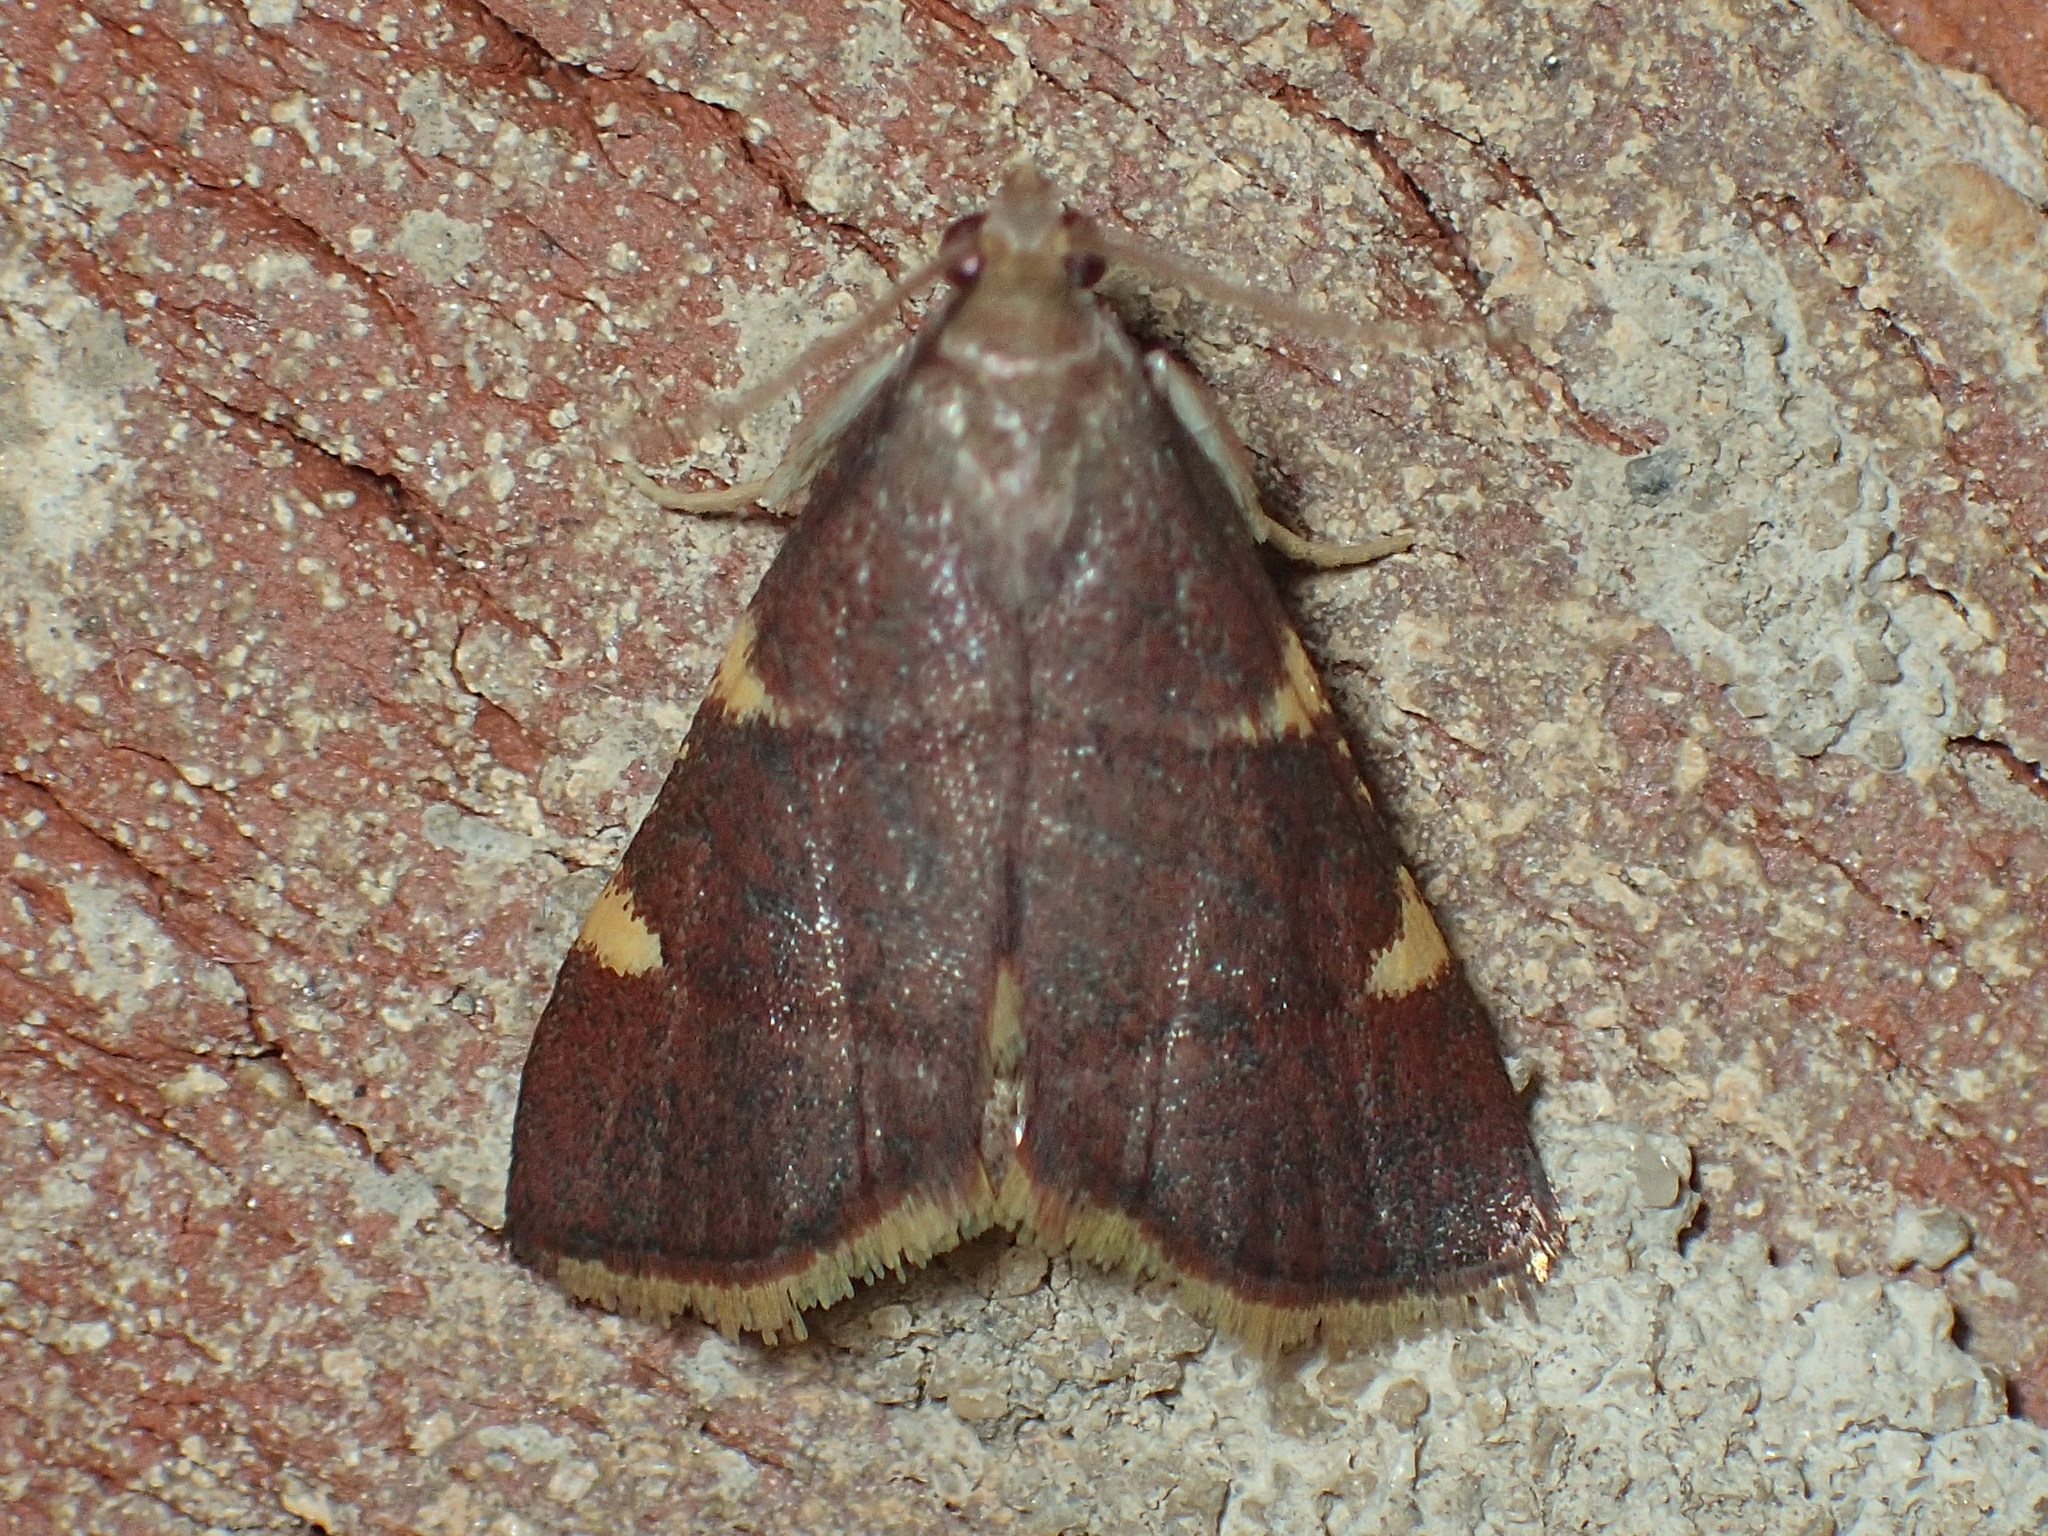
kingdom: Animalia
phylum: Arthropoda
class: Insecta
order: Lepidoptera
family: Pyralidae
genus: Hypsopygia
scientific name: Hypsopygia olinalis
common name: Yellow-fringed dolichomia moth
